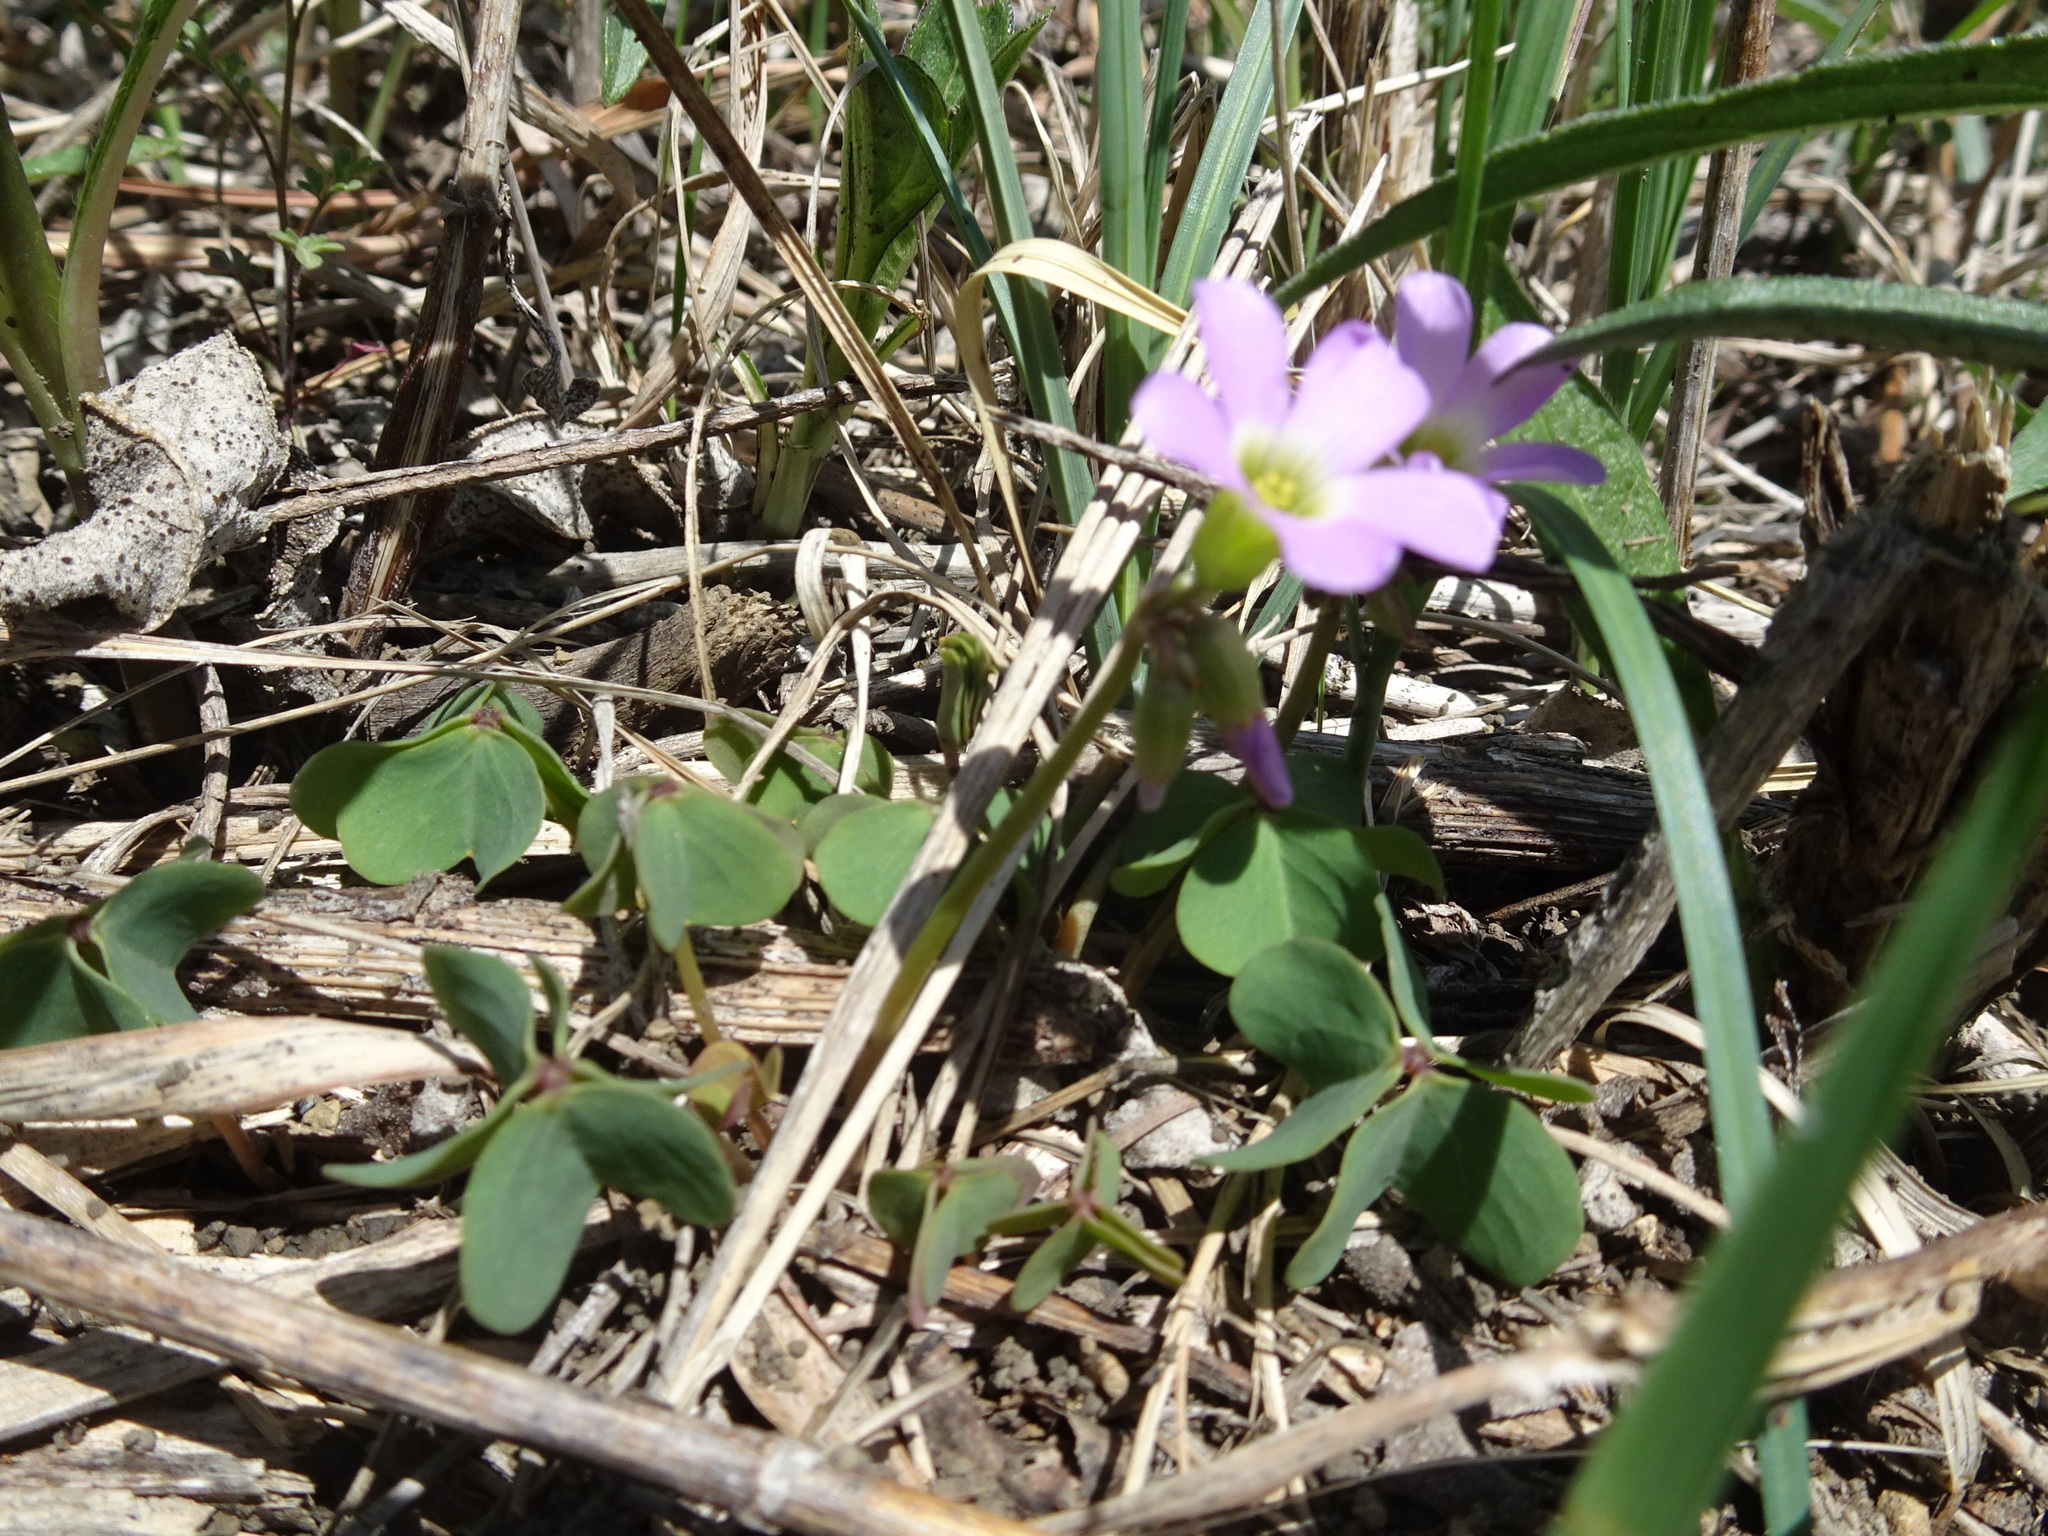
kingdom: Plantae
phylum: Tracheophyta
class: Magnoliopsida
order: Oxalidales
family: Oxalidaceae
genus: Oxalis
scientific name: Oxalis violacea
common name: Violet wood-sorrel
